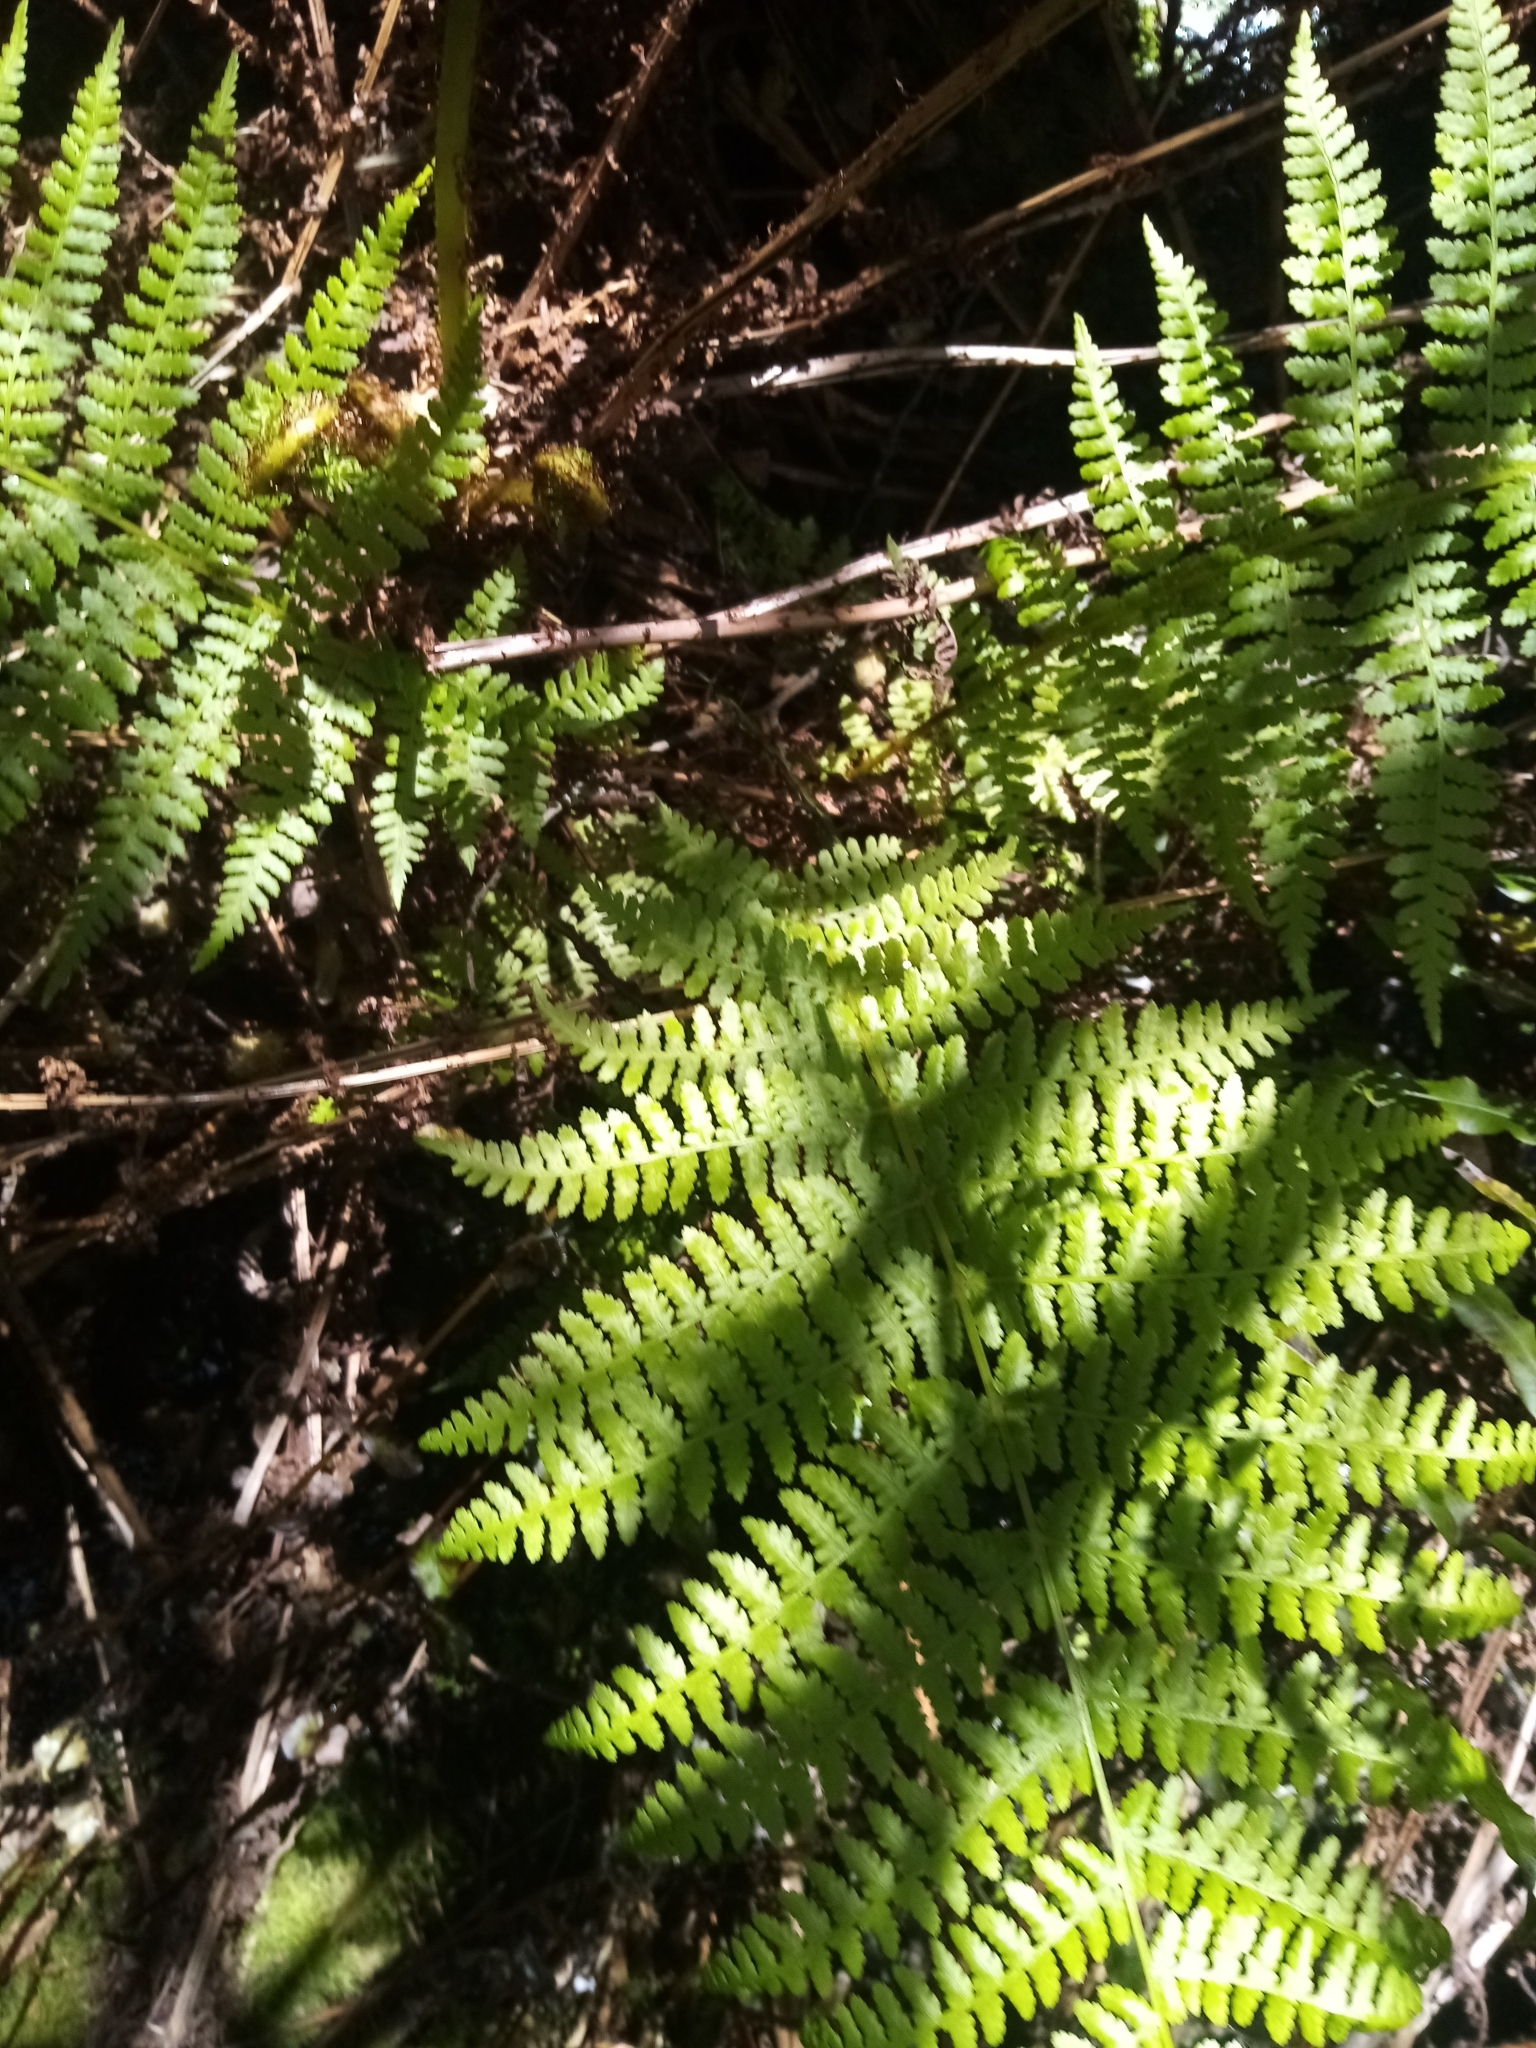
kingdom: Plantae
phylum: Tracheophyta
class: Polypodiopsida
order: Polypodiales
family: Athyriaceae
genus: Athyrium
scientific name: Athyrium filix-femina
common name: Lady fern
